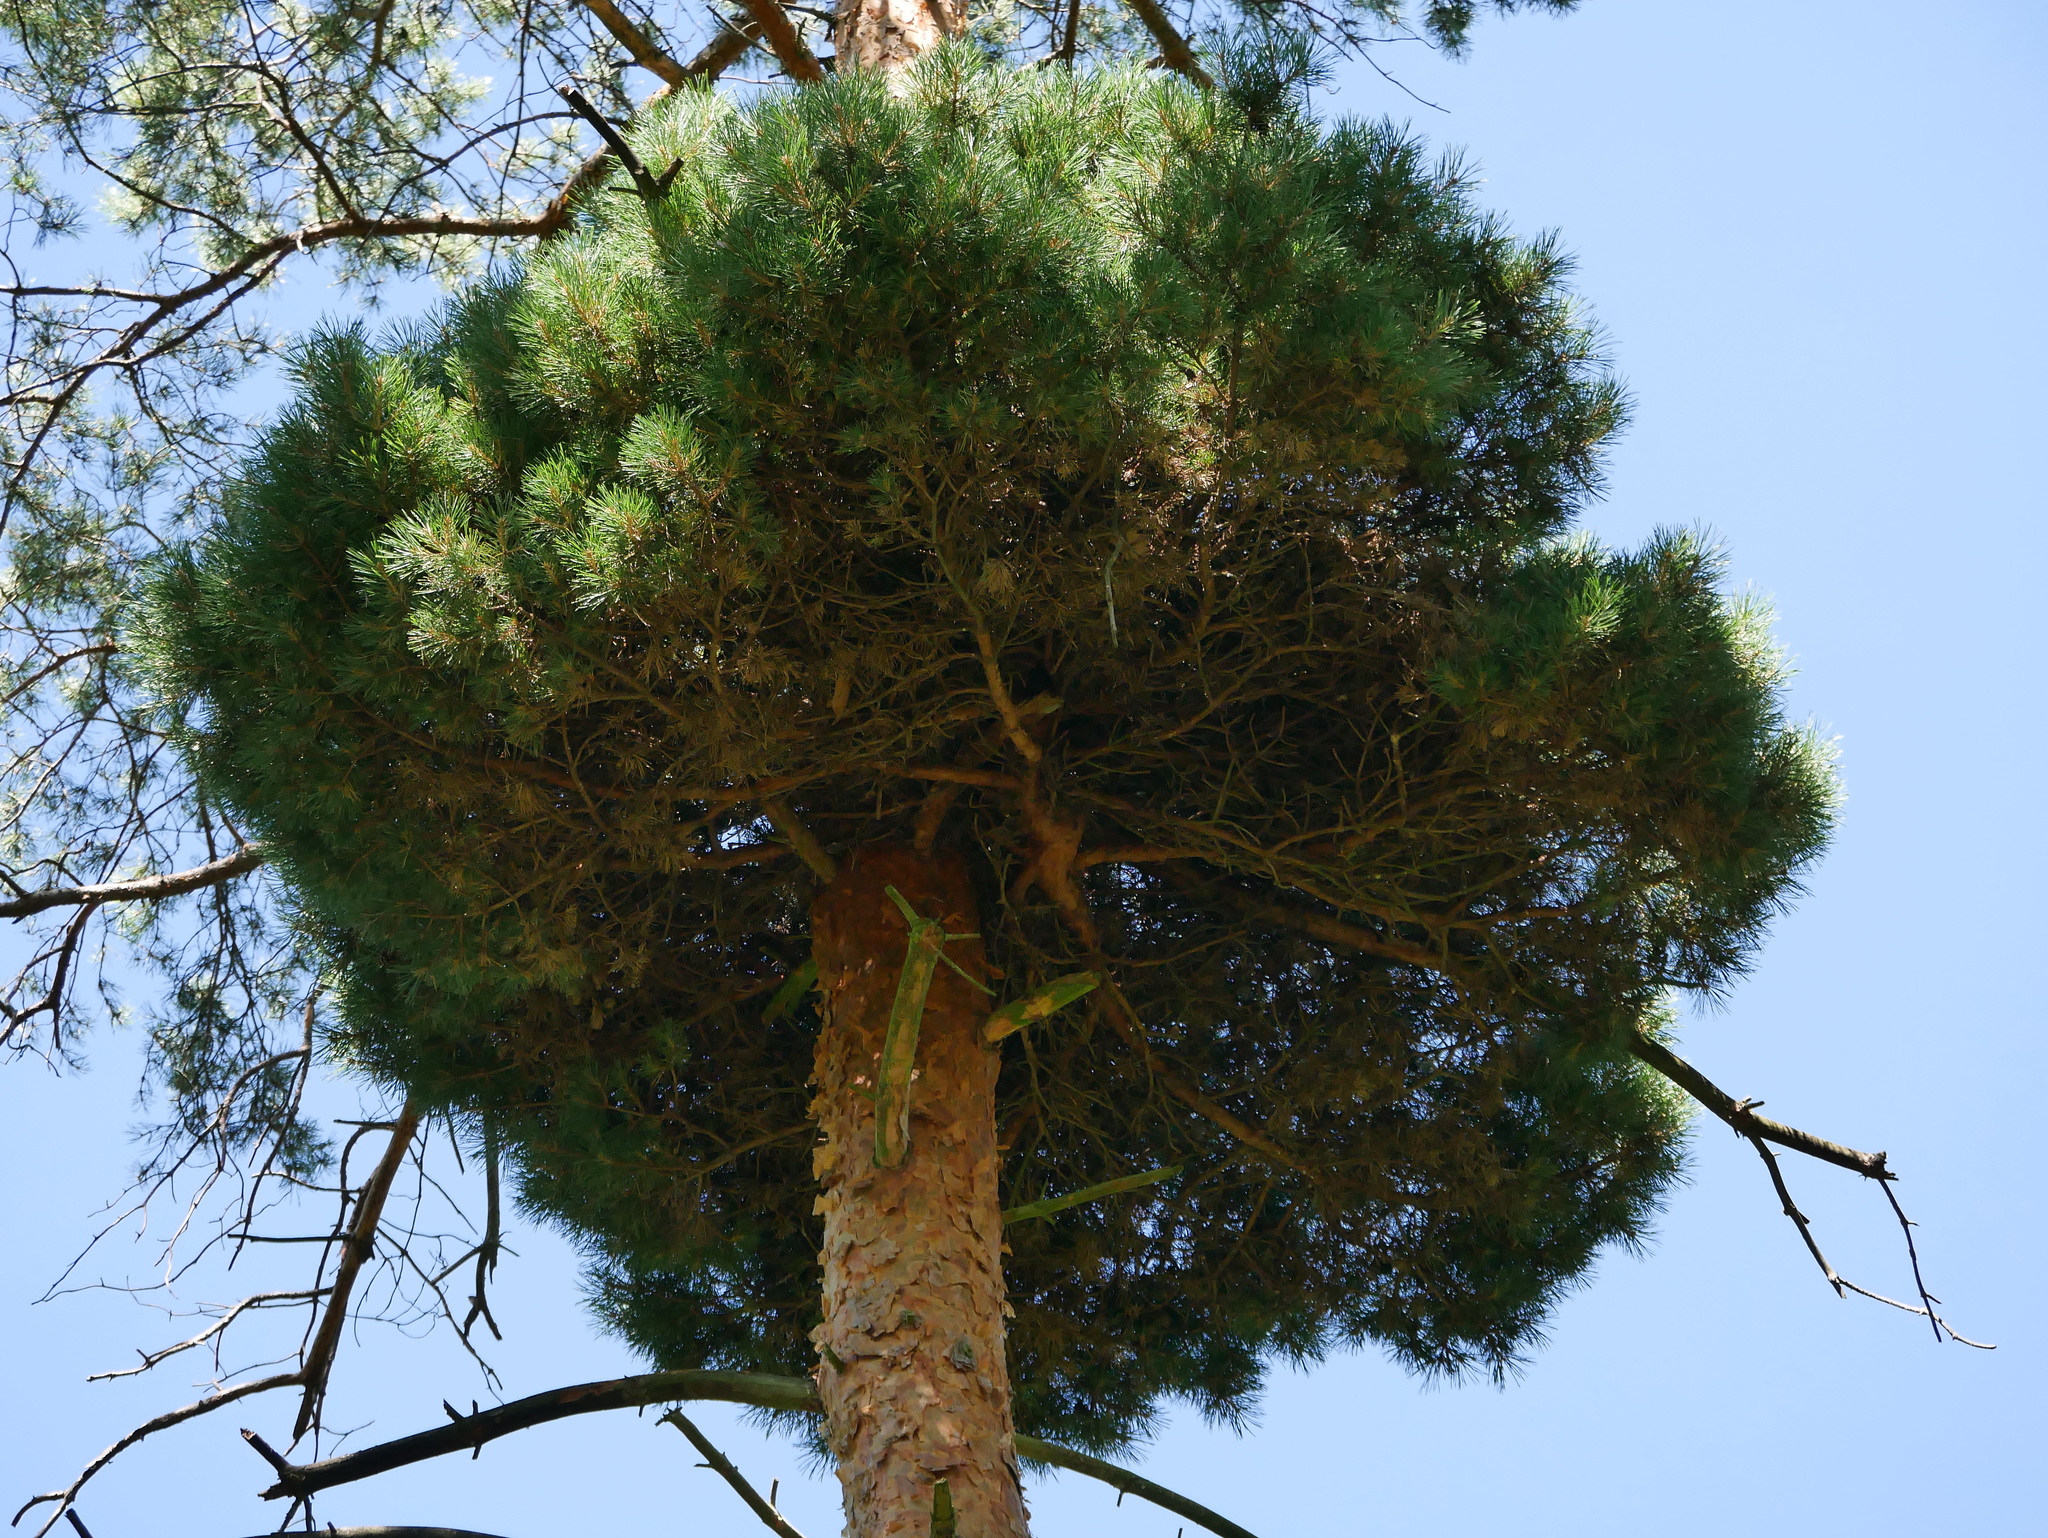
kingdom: Bacteria
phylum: Firmicutes
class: Bacilli
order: Acholeplasmatales
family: Acholeplasmataceae
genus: Phytoplasma
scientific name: Phytoplasma pini
